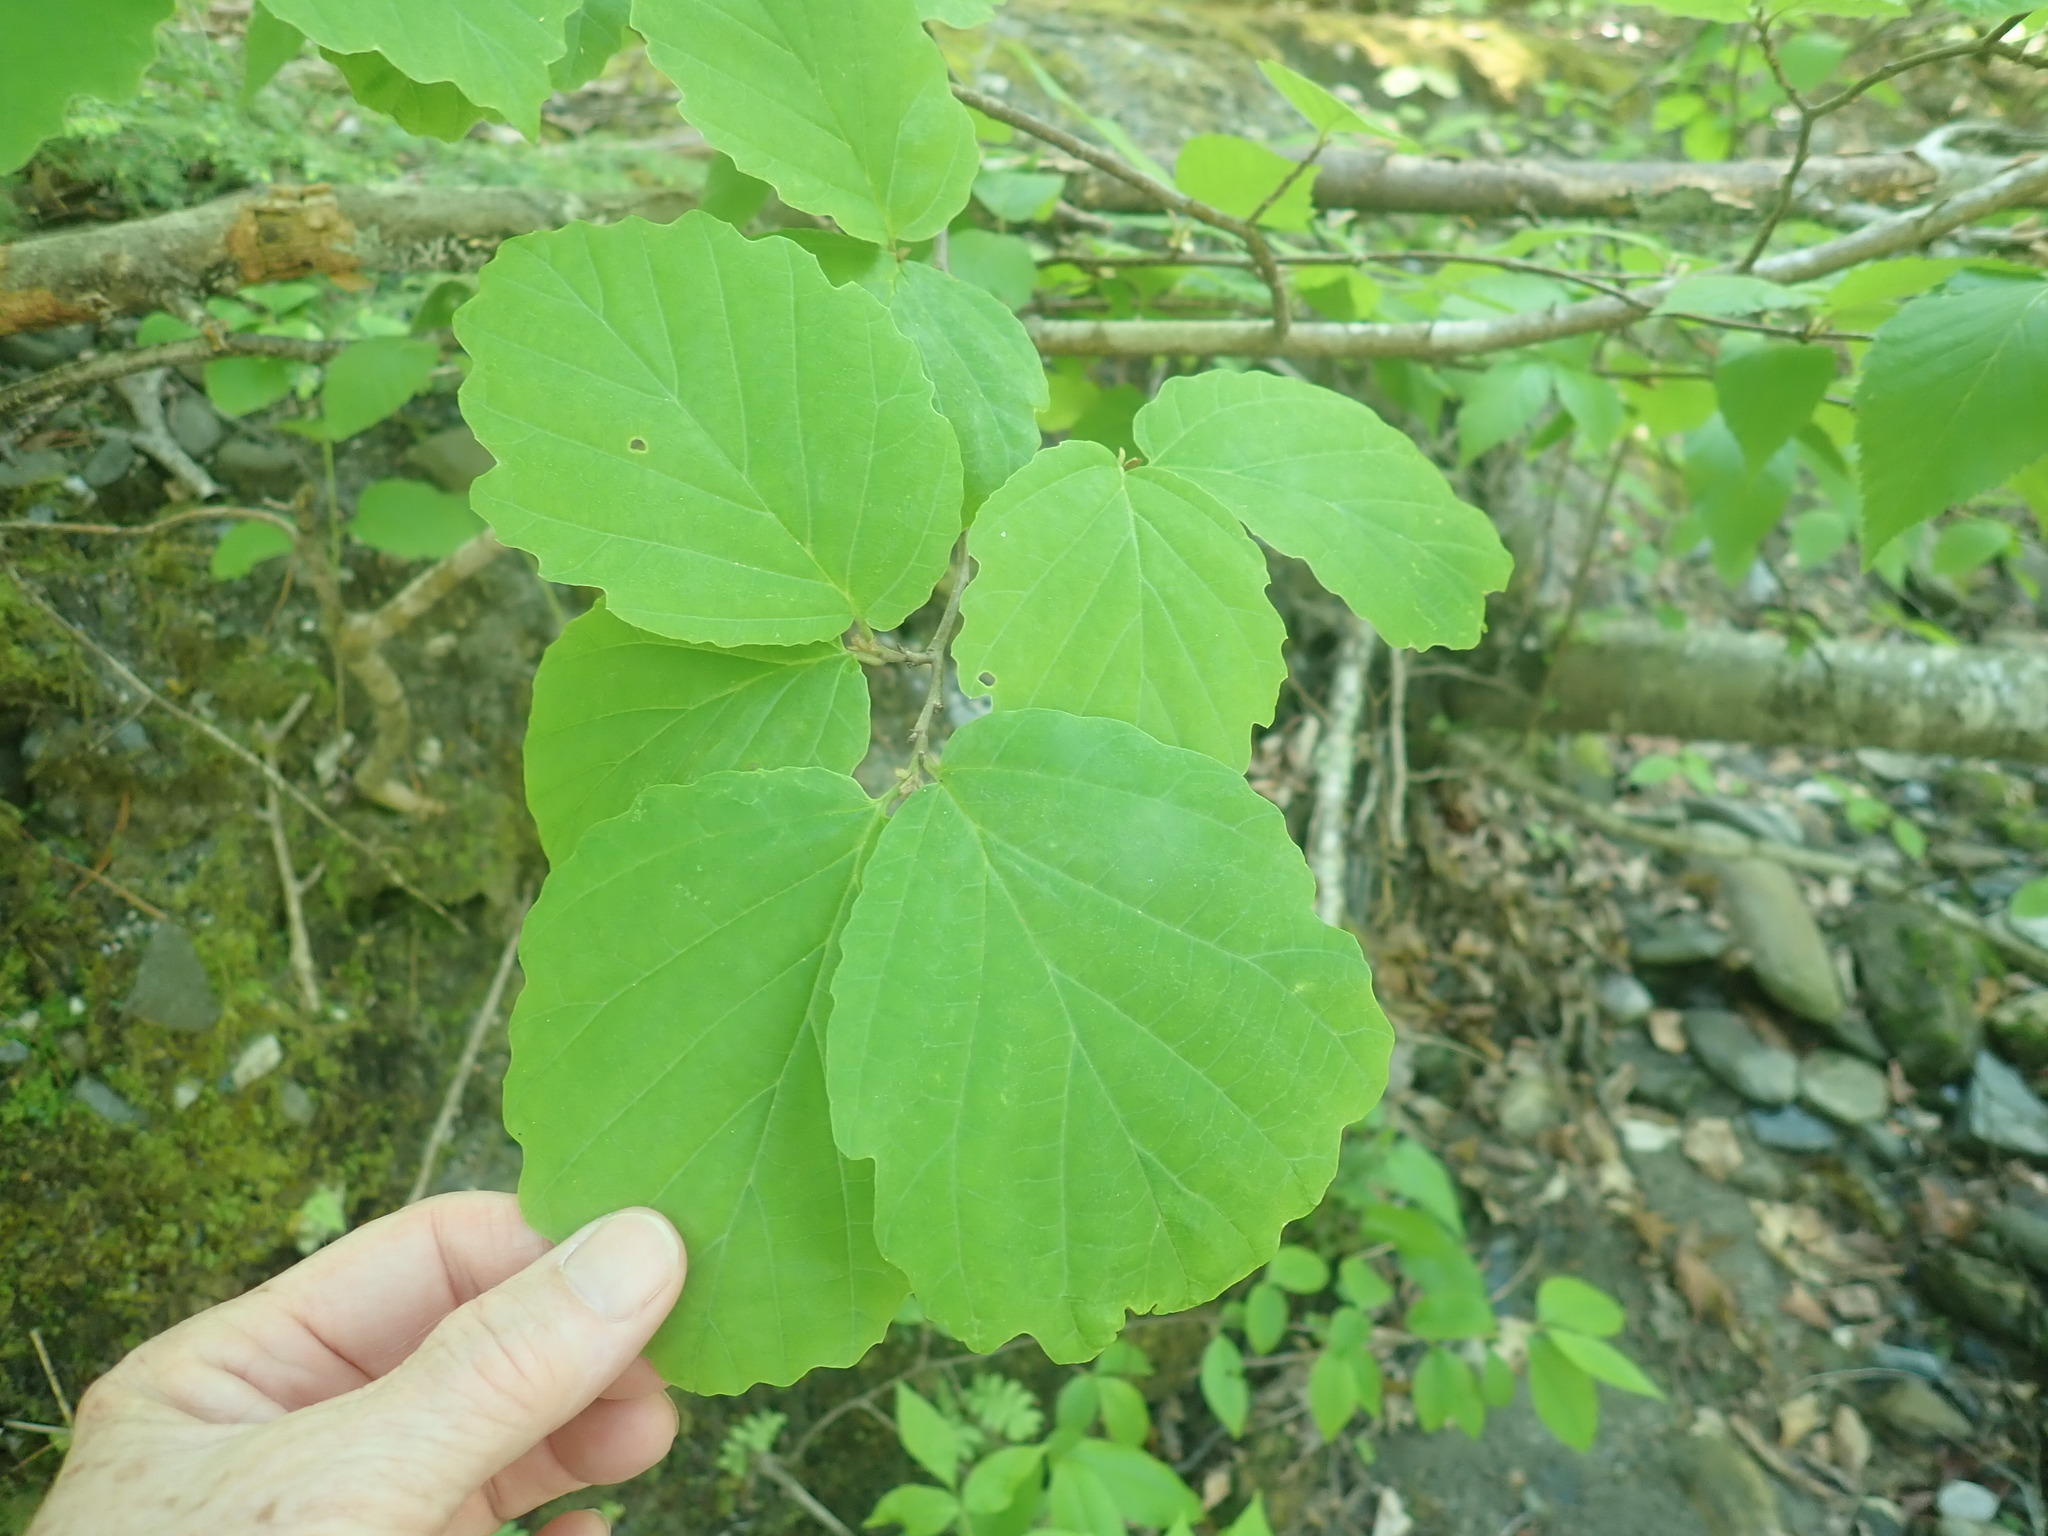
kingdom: Plantae
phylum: Tracheophyta
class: Magnoliopsida
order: Saxifragales
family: Hamamelidaceae
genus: Hamamelis
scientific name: Hamamelis virginiana
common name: Witch-hazel
